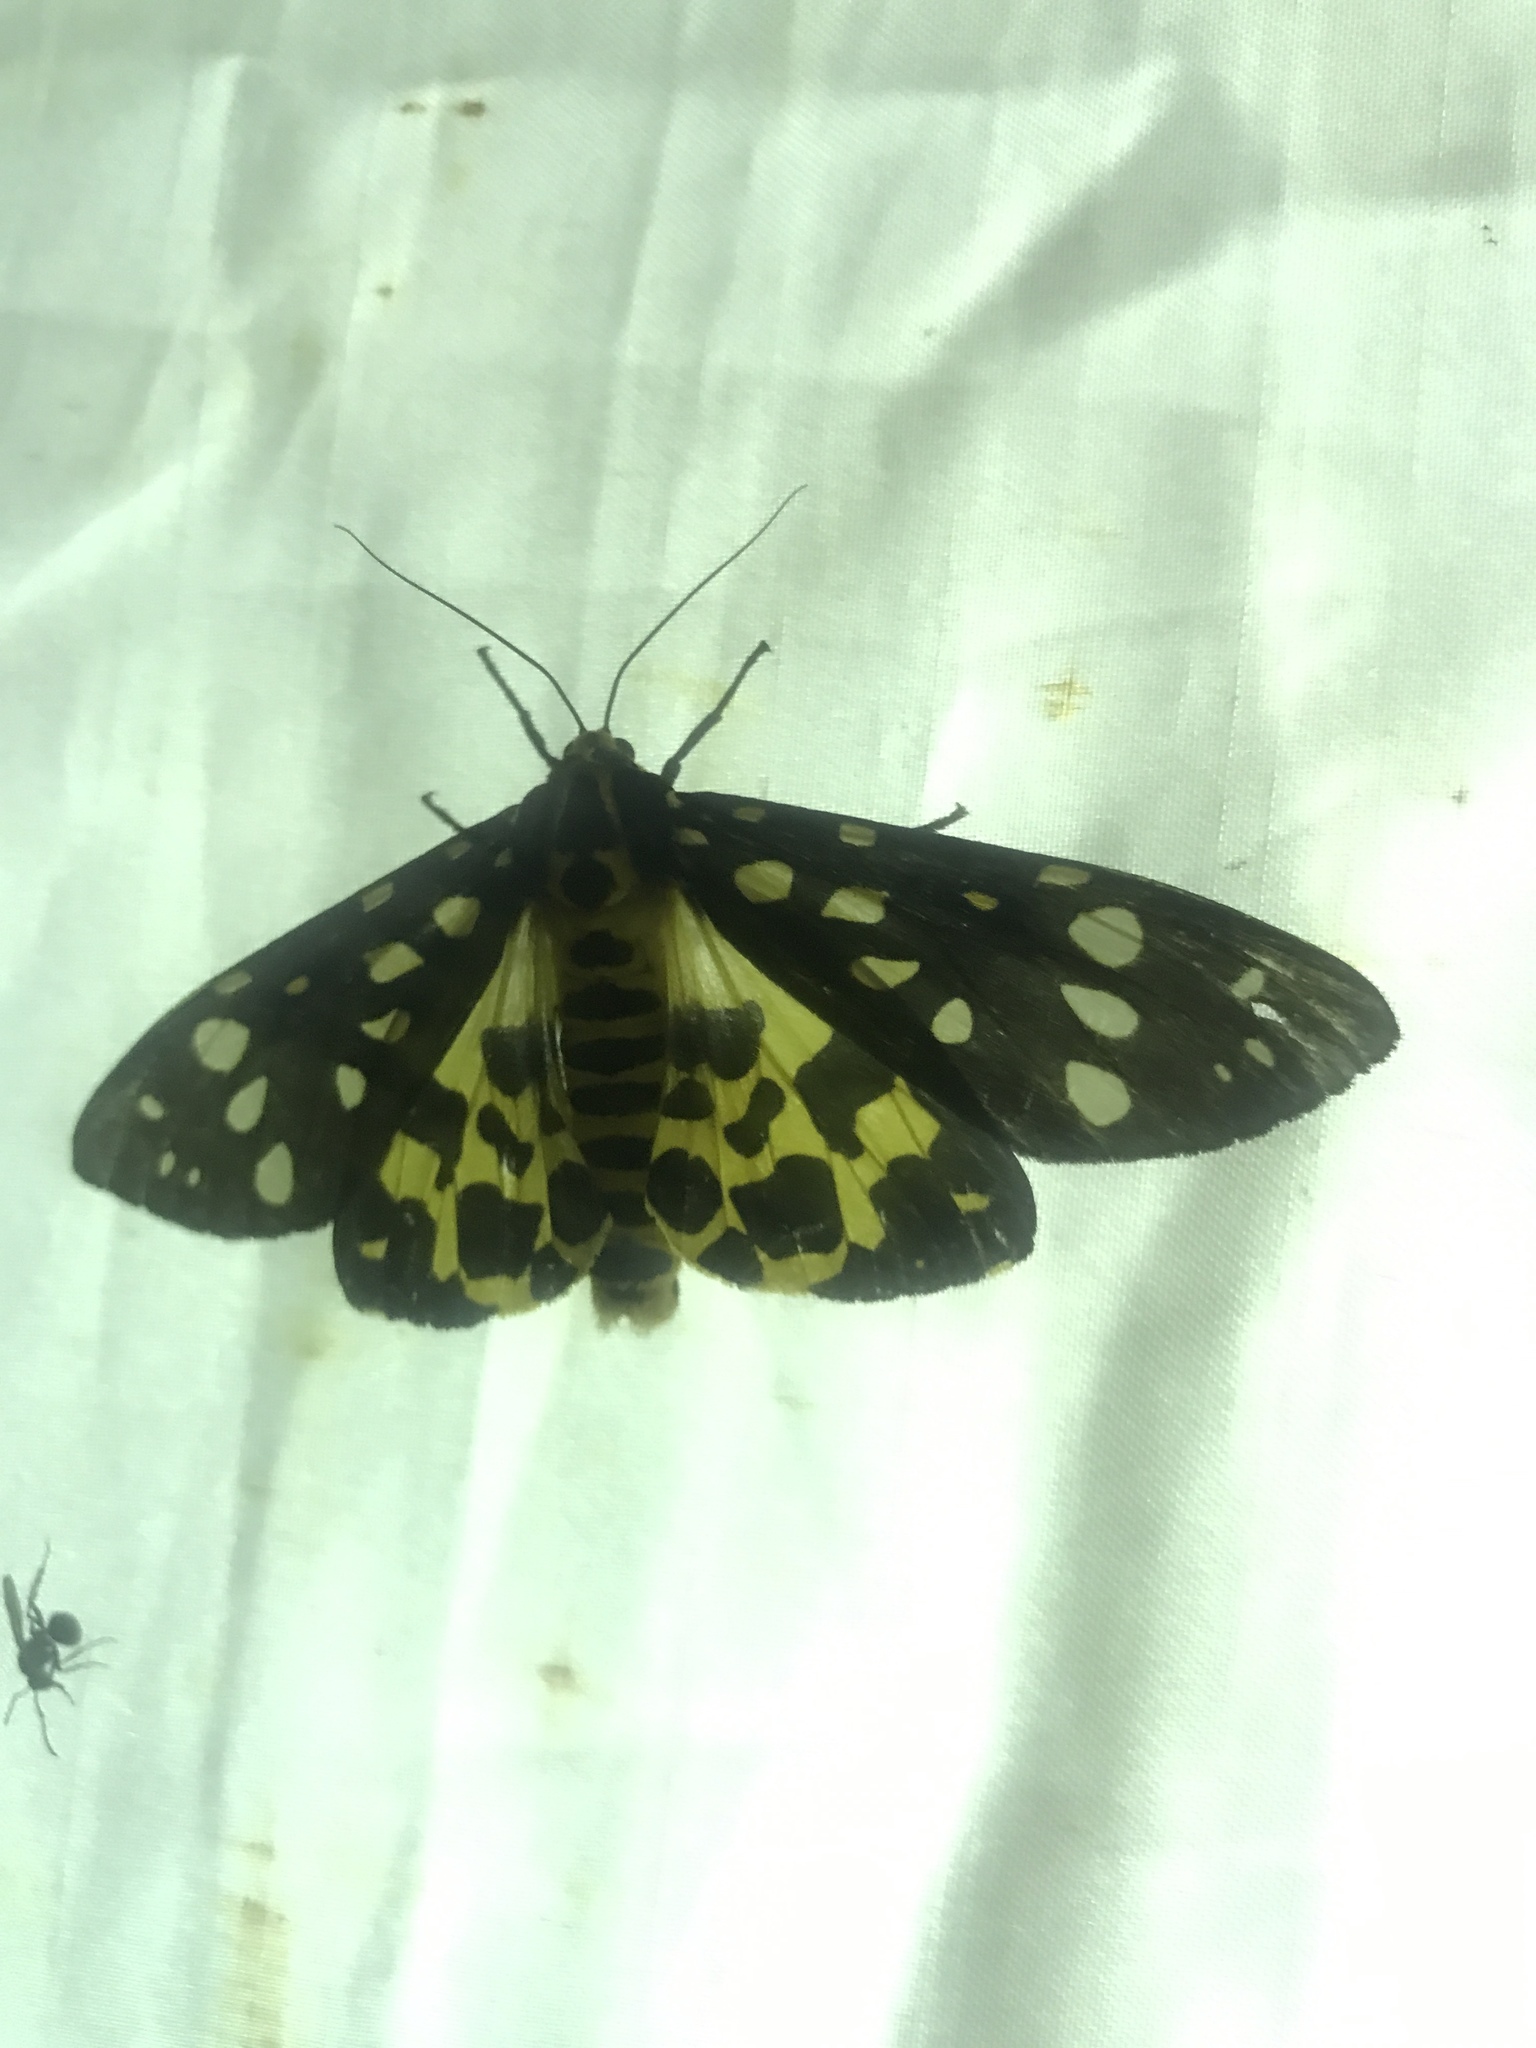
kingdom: Animalia
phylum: Arthropoda
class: Insecta
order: Lepidoptera
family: Erebidae
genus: Aglaomorpha
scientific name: Aglaomorpha histrio
